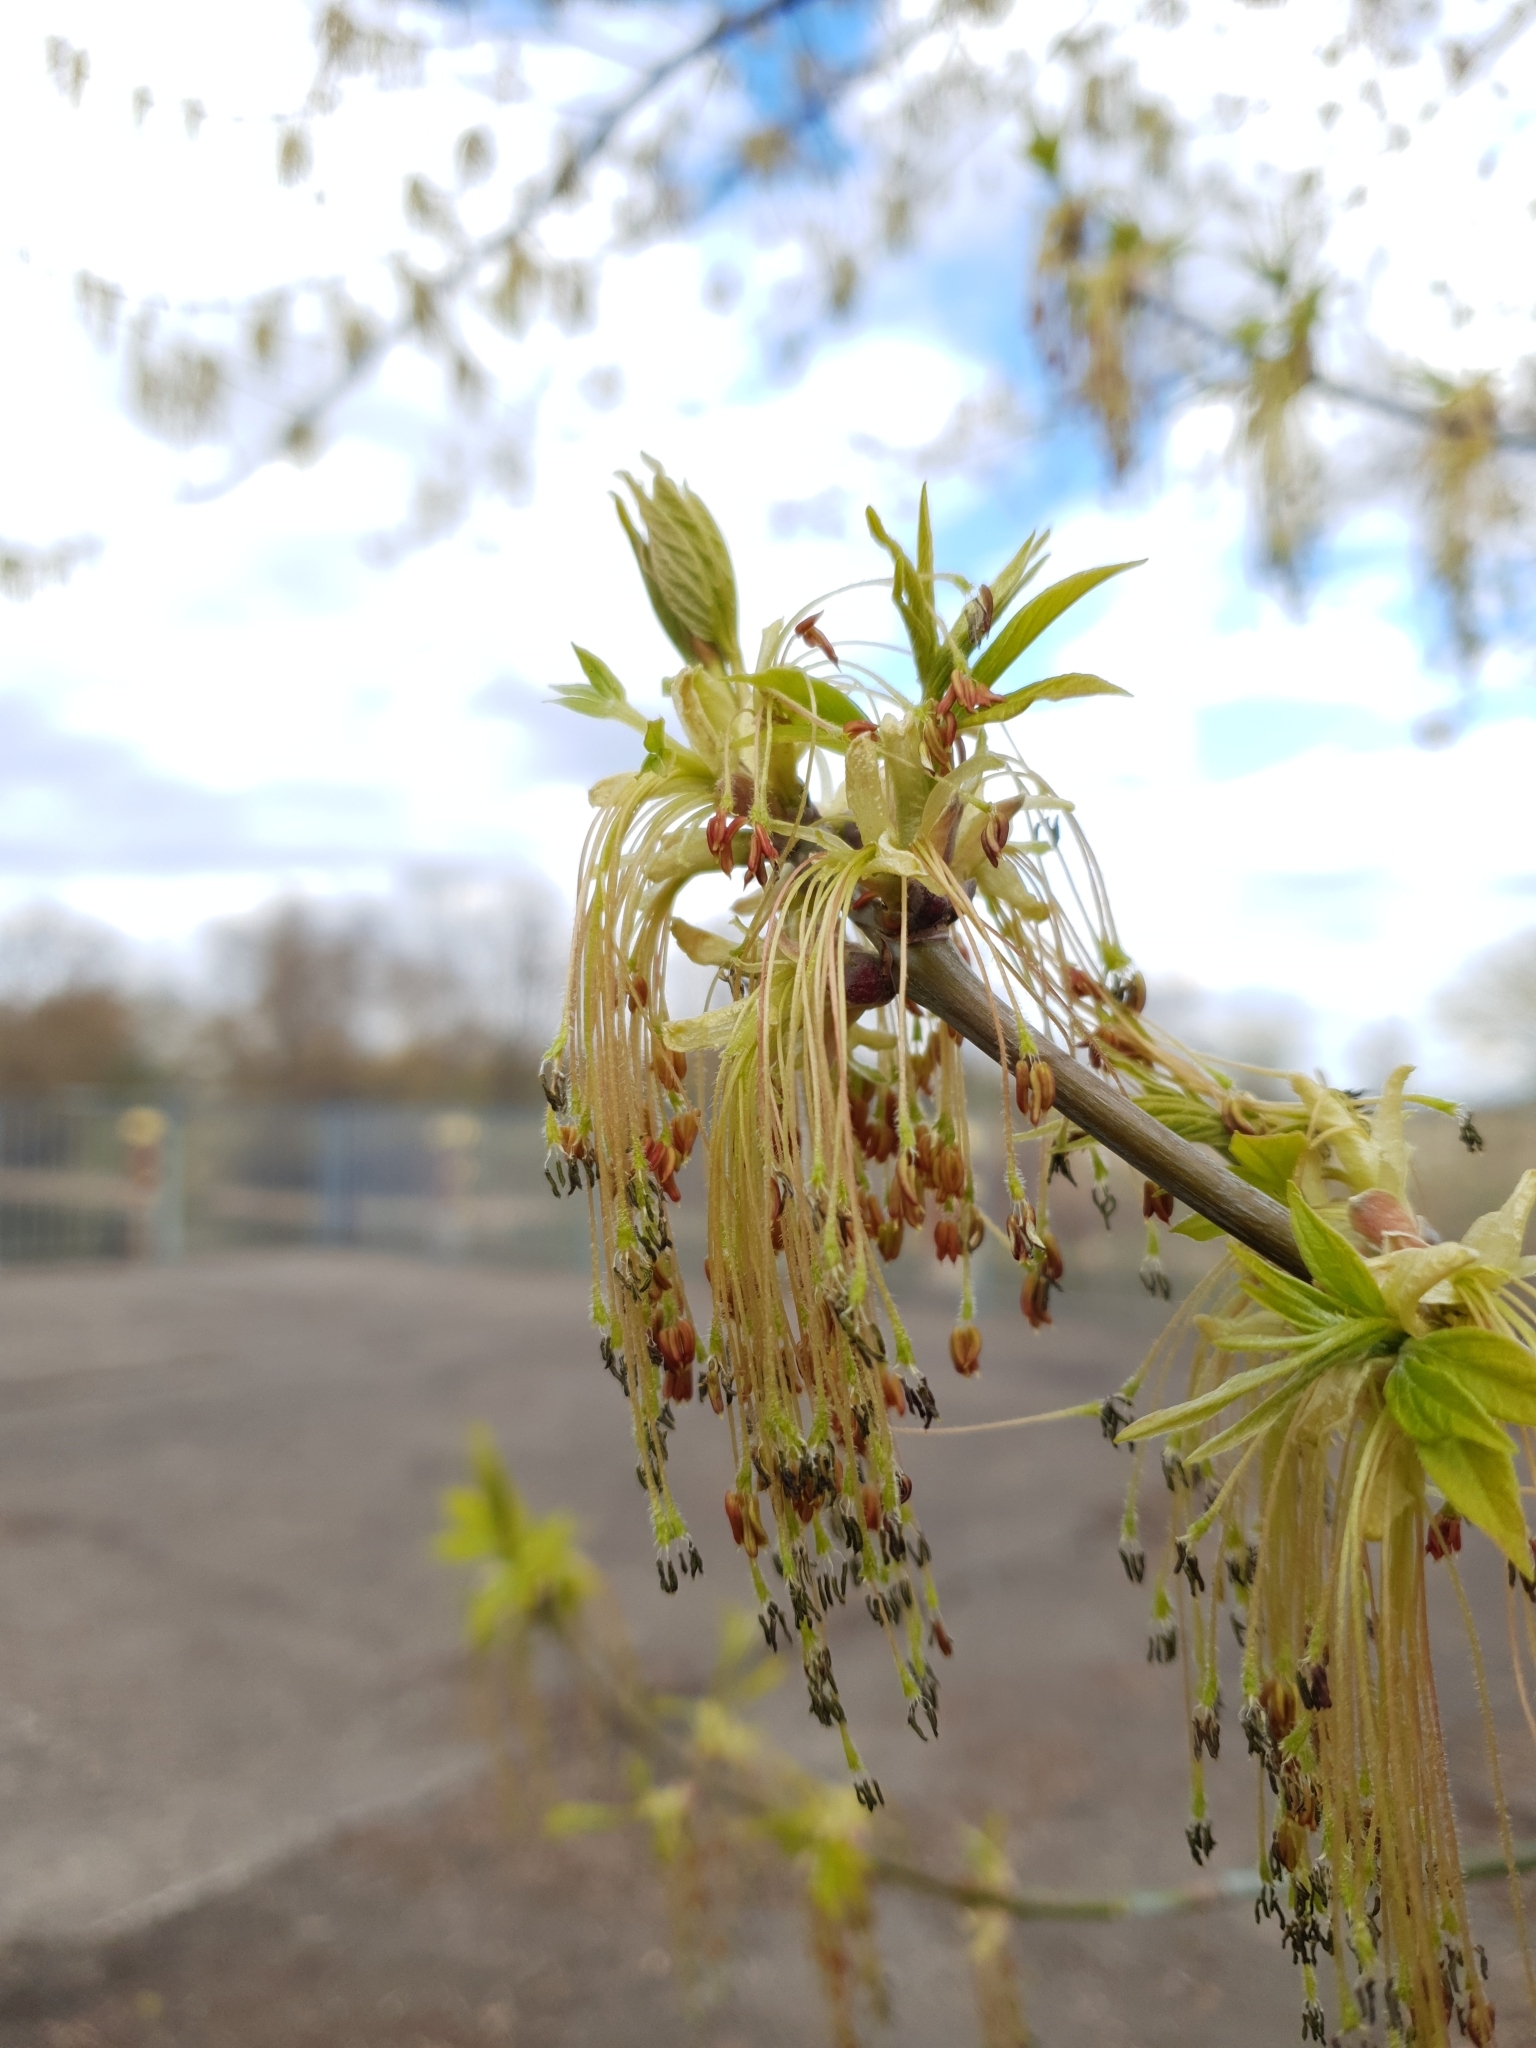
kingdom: Plantae
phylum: Tracheophyta
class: Magnoliopsida
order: Sapindales
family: Sapindaceae
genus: Acer
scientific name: Acer negundo
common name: Ashleaf maple
